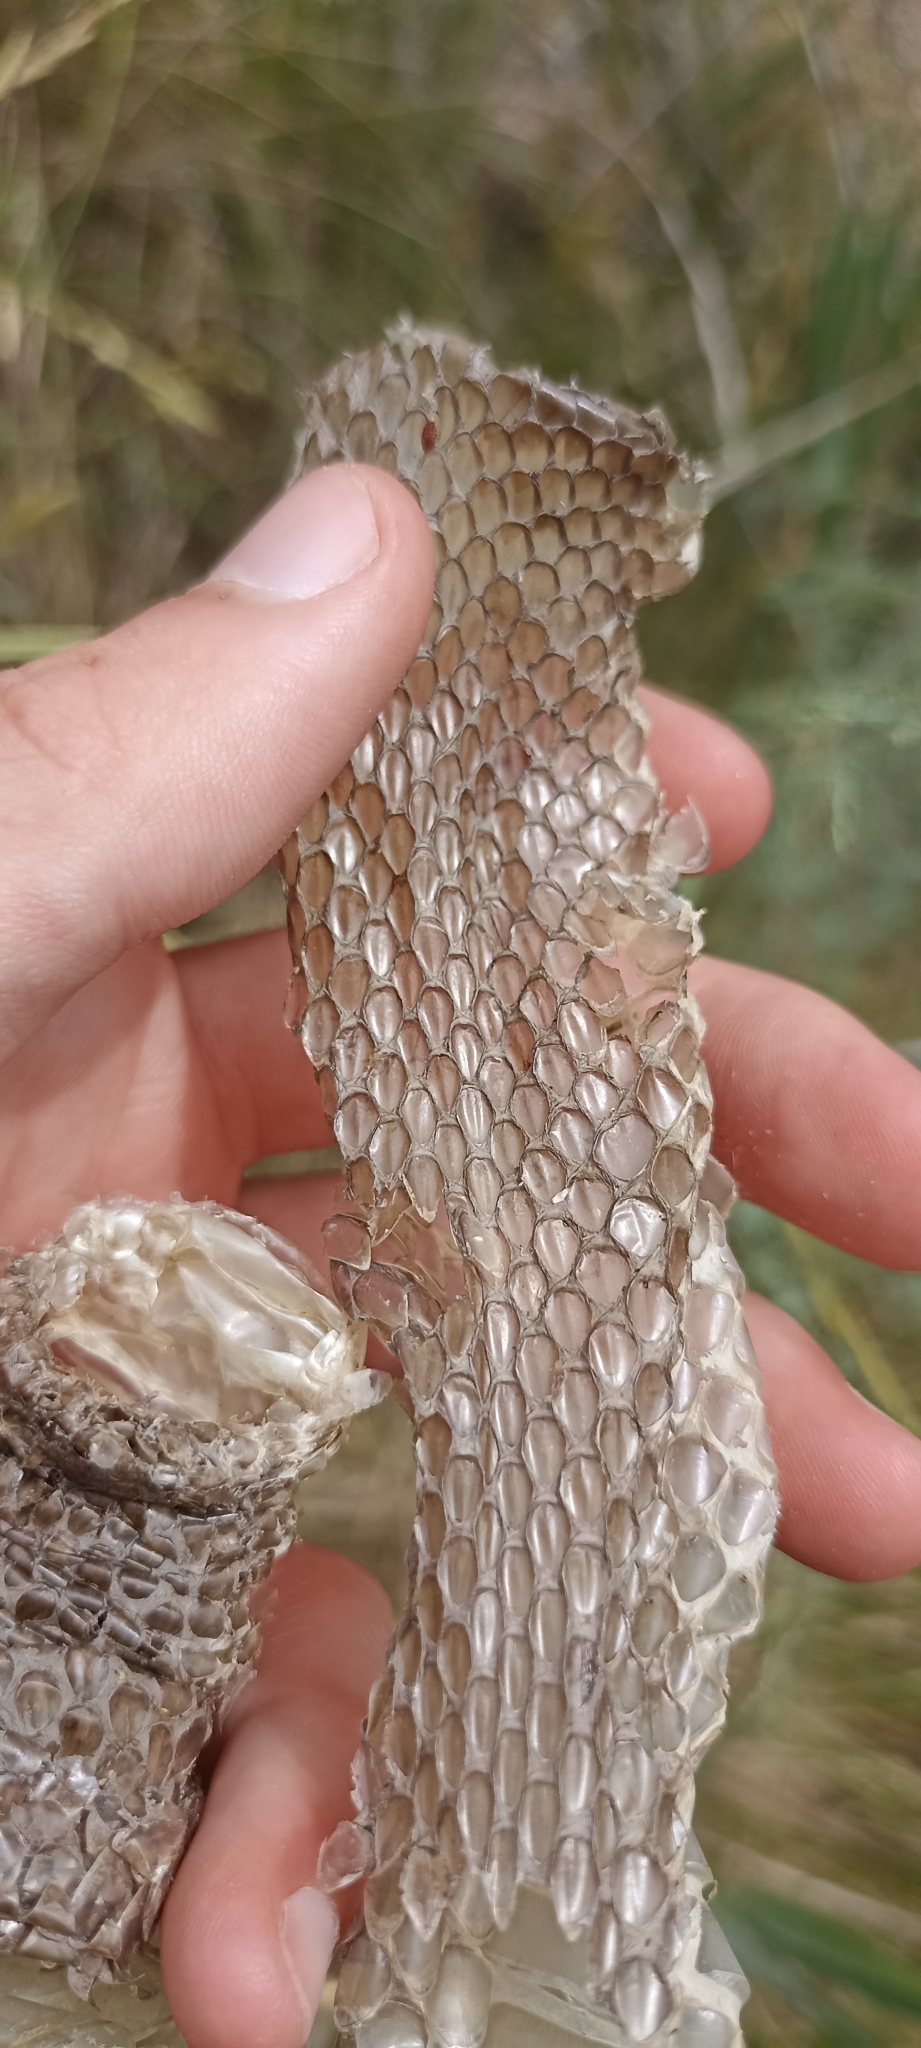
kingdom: Animalia
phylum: Chordata
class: Squamata
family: Psammophiidae
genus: Malpolon
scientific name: Malpolon monspessulanus
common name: Montpellier snake
